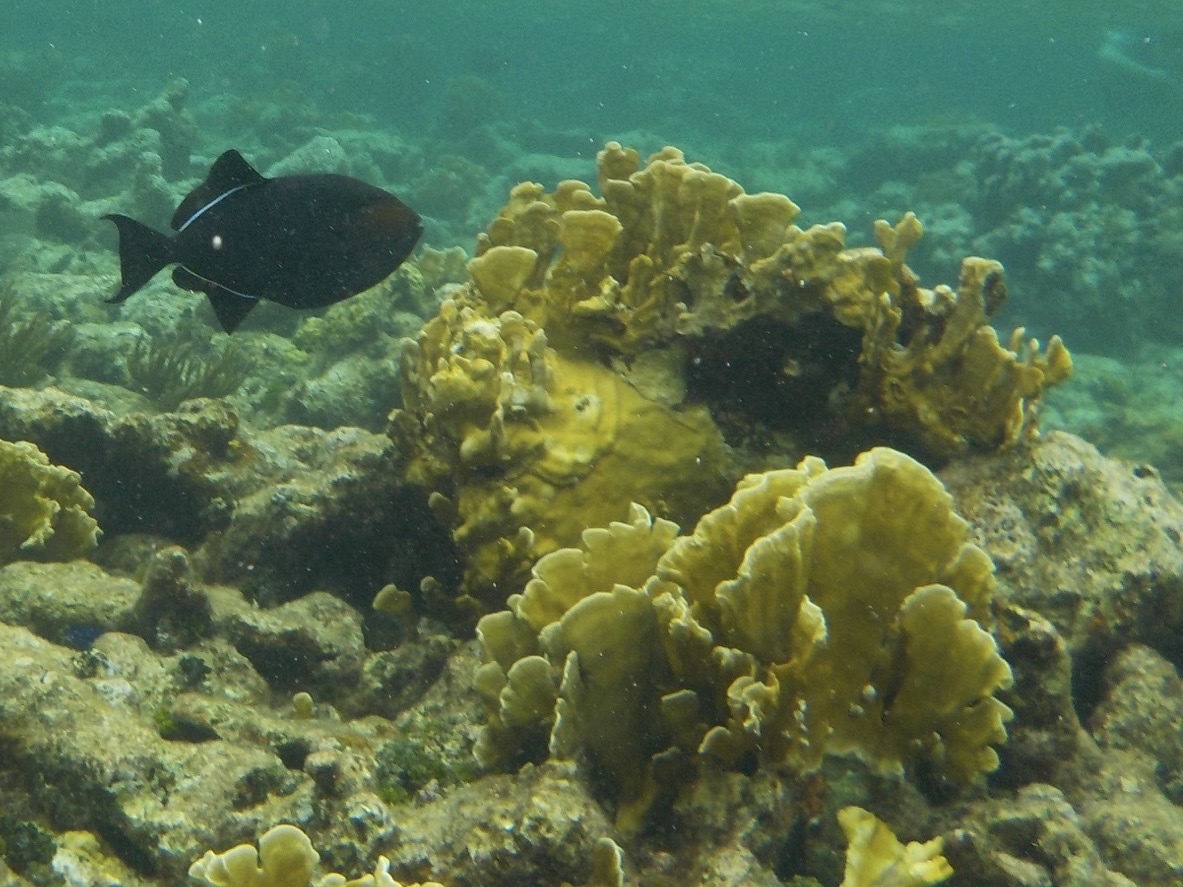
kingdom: Animalia
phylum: Cnidaria
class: Hydrozoa
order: Anthoathecata
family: Milleporidae
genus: Millepora
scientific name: Millepora complanata
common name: Bladed fire coral
